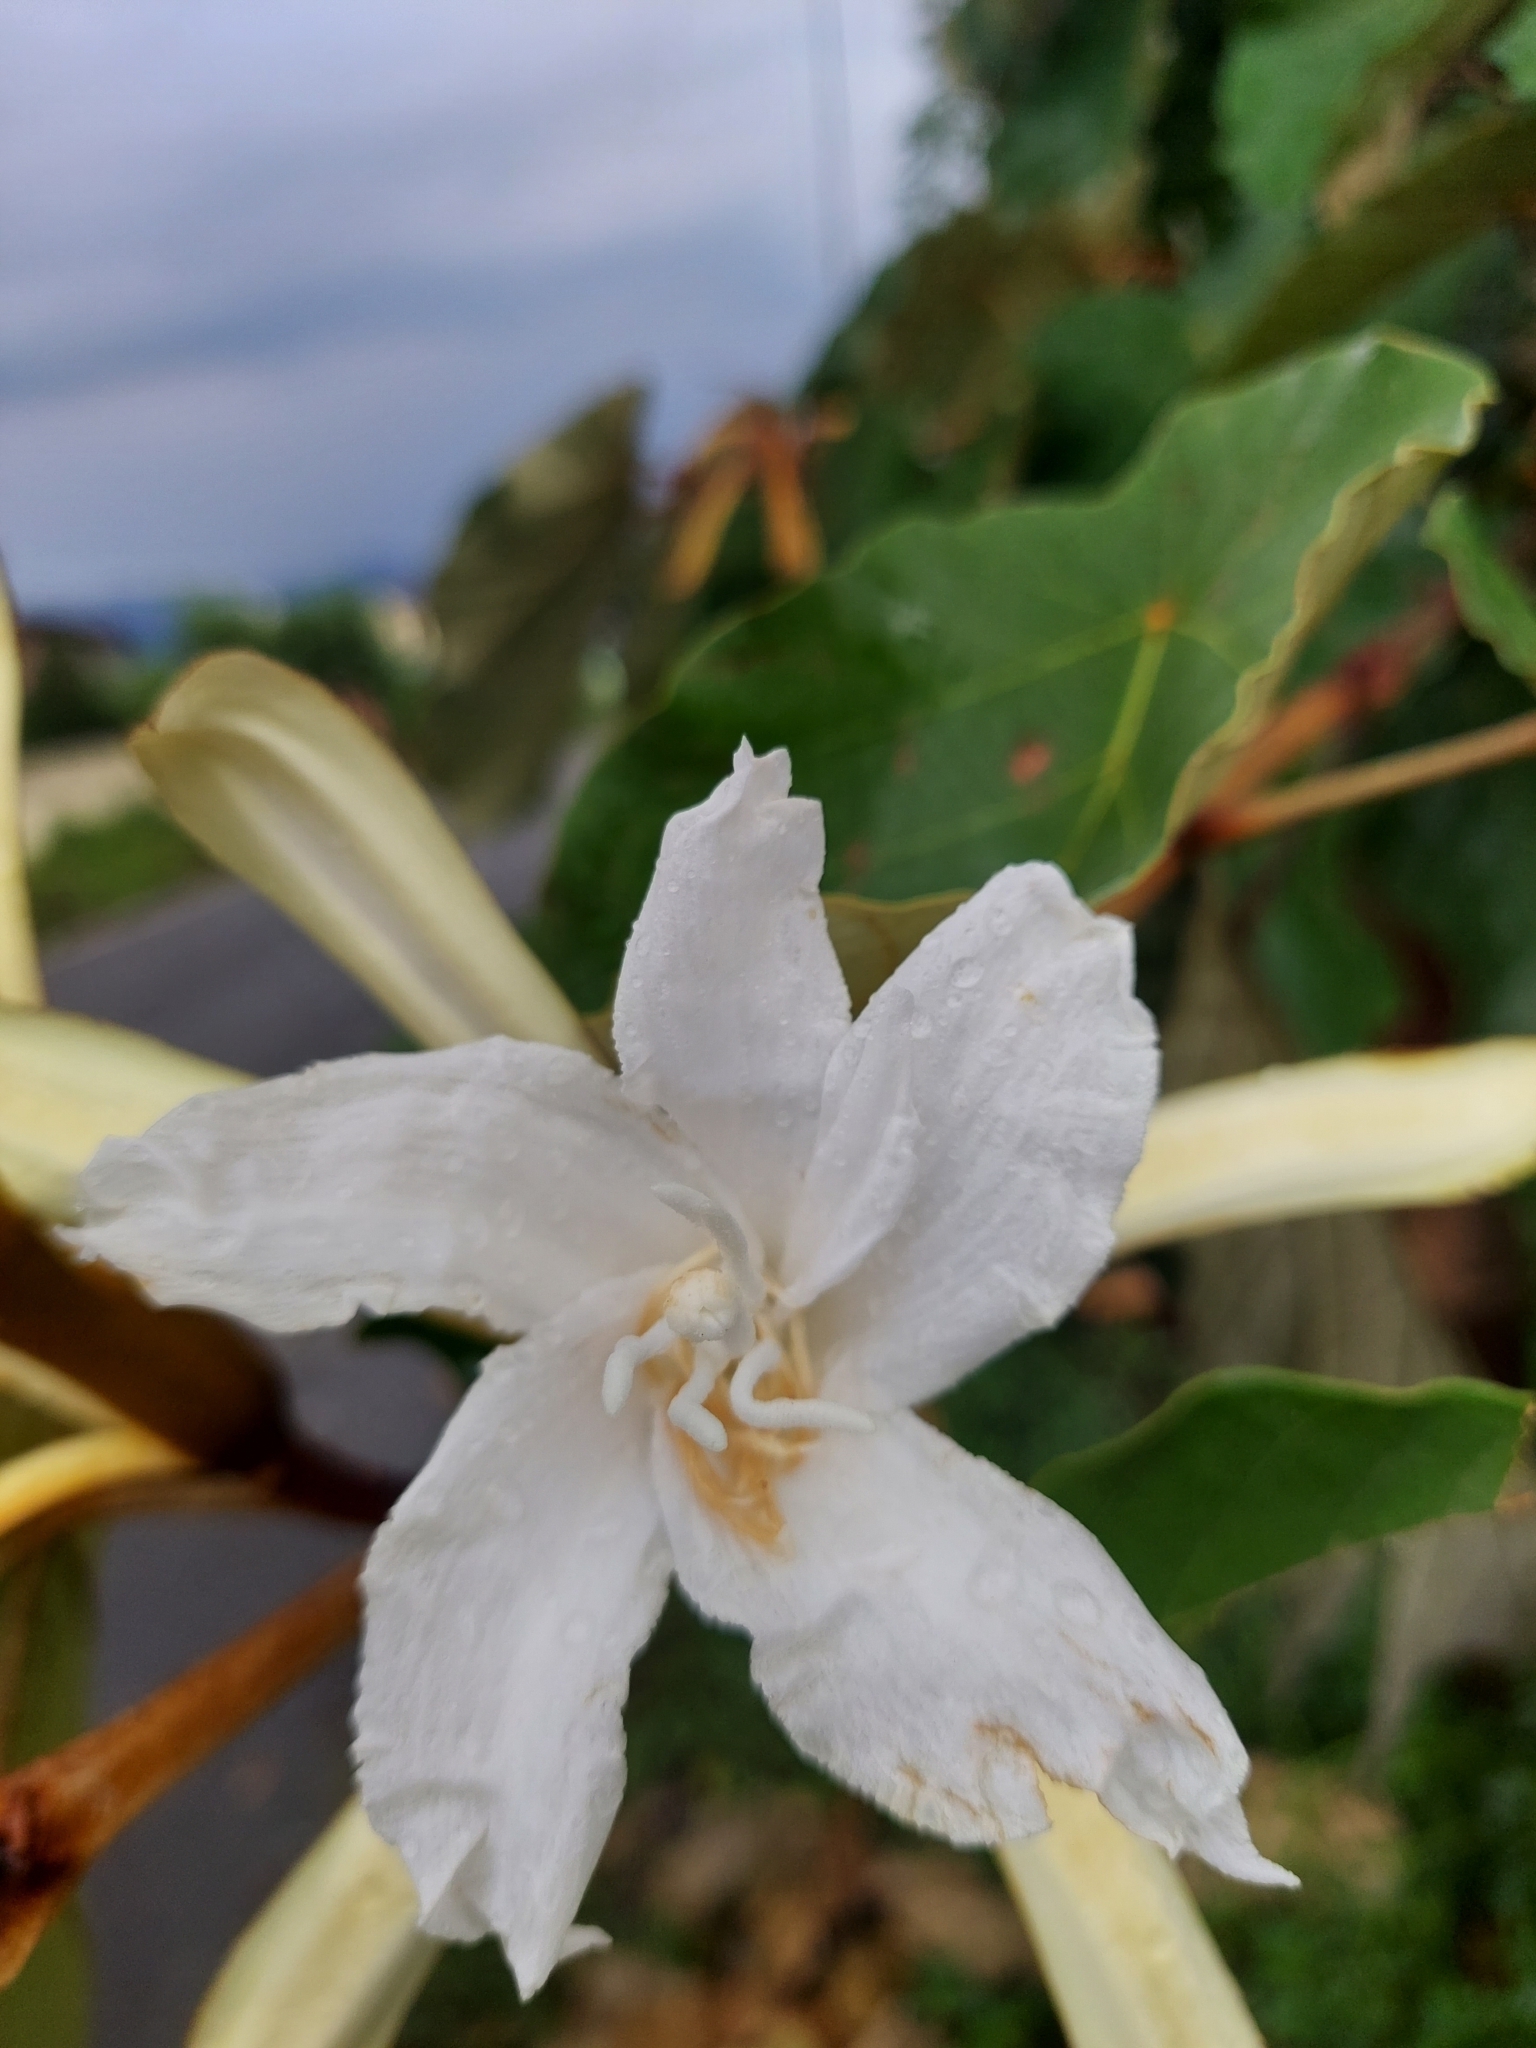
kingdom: Plantae
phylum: Tracheophyta
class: Magnoliopsida
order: Malvales
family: Malvaceae
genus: Pterospermum
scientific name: Pterospermum acerifolium
